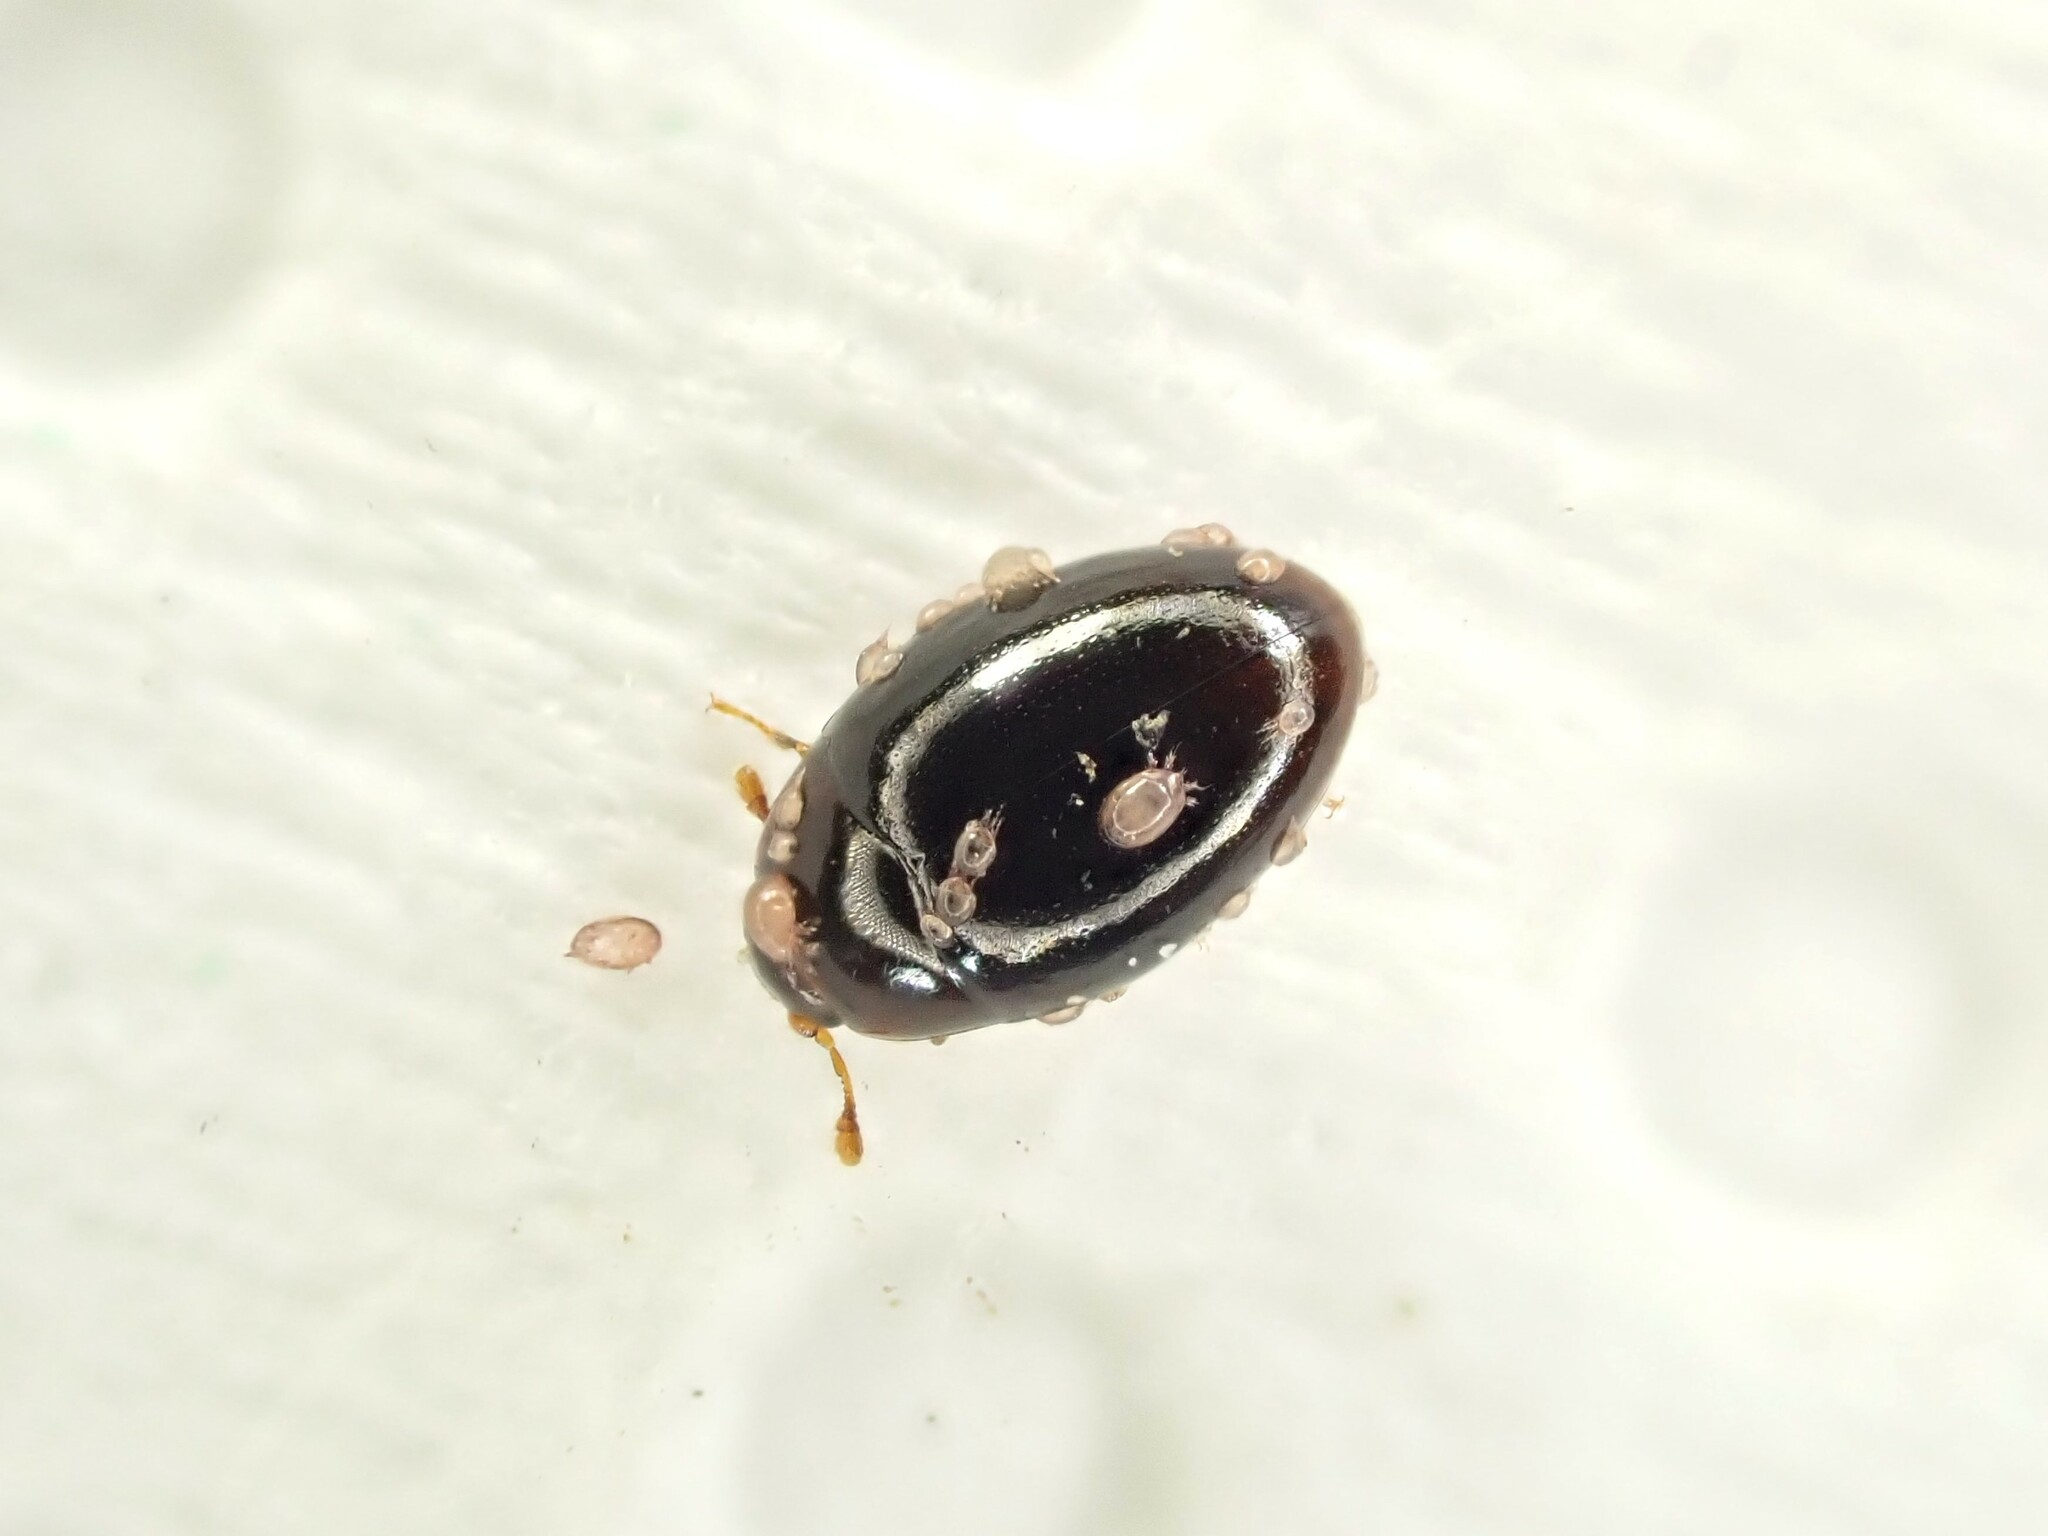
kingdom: Animalia
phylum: Arthropoda
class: Insecta
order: Coleoptera
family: Cerylonidae
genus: Hypodacnella
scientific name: Hypodacnella
